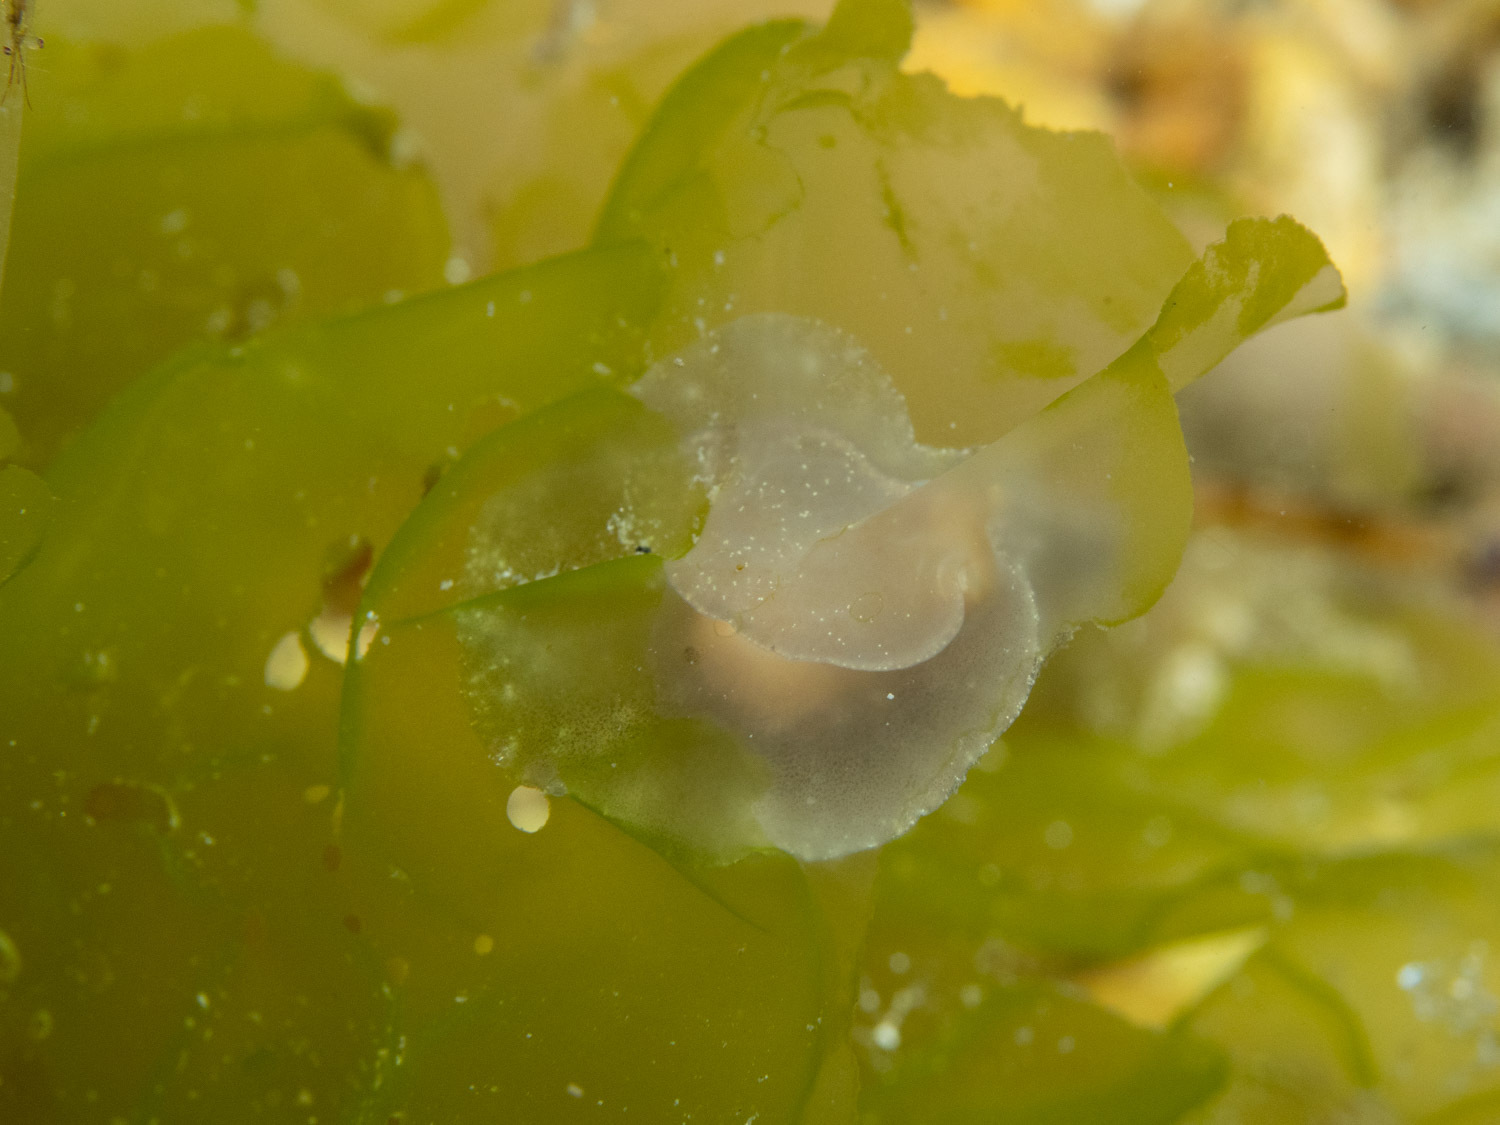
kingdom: Animalia
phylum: Mollusca
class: Gastropoda
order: Littorinimorpha
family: Velutinidae
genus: Lamellaria
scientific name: Lamellaria ophione
